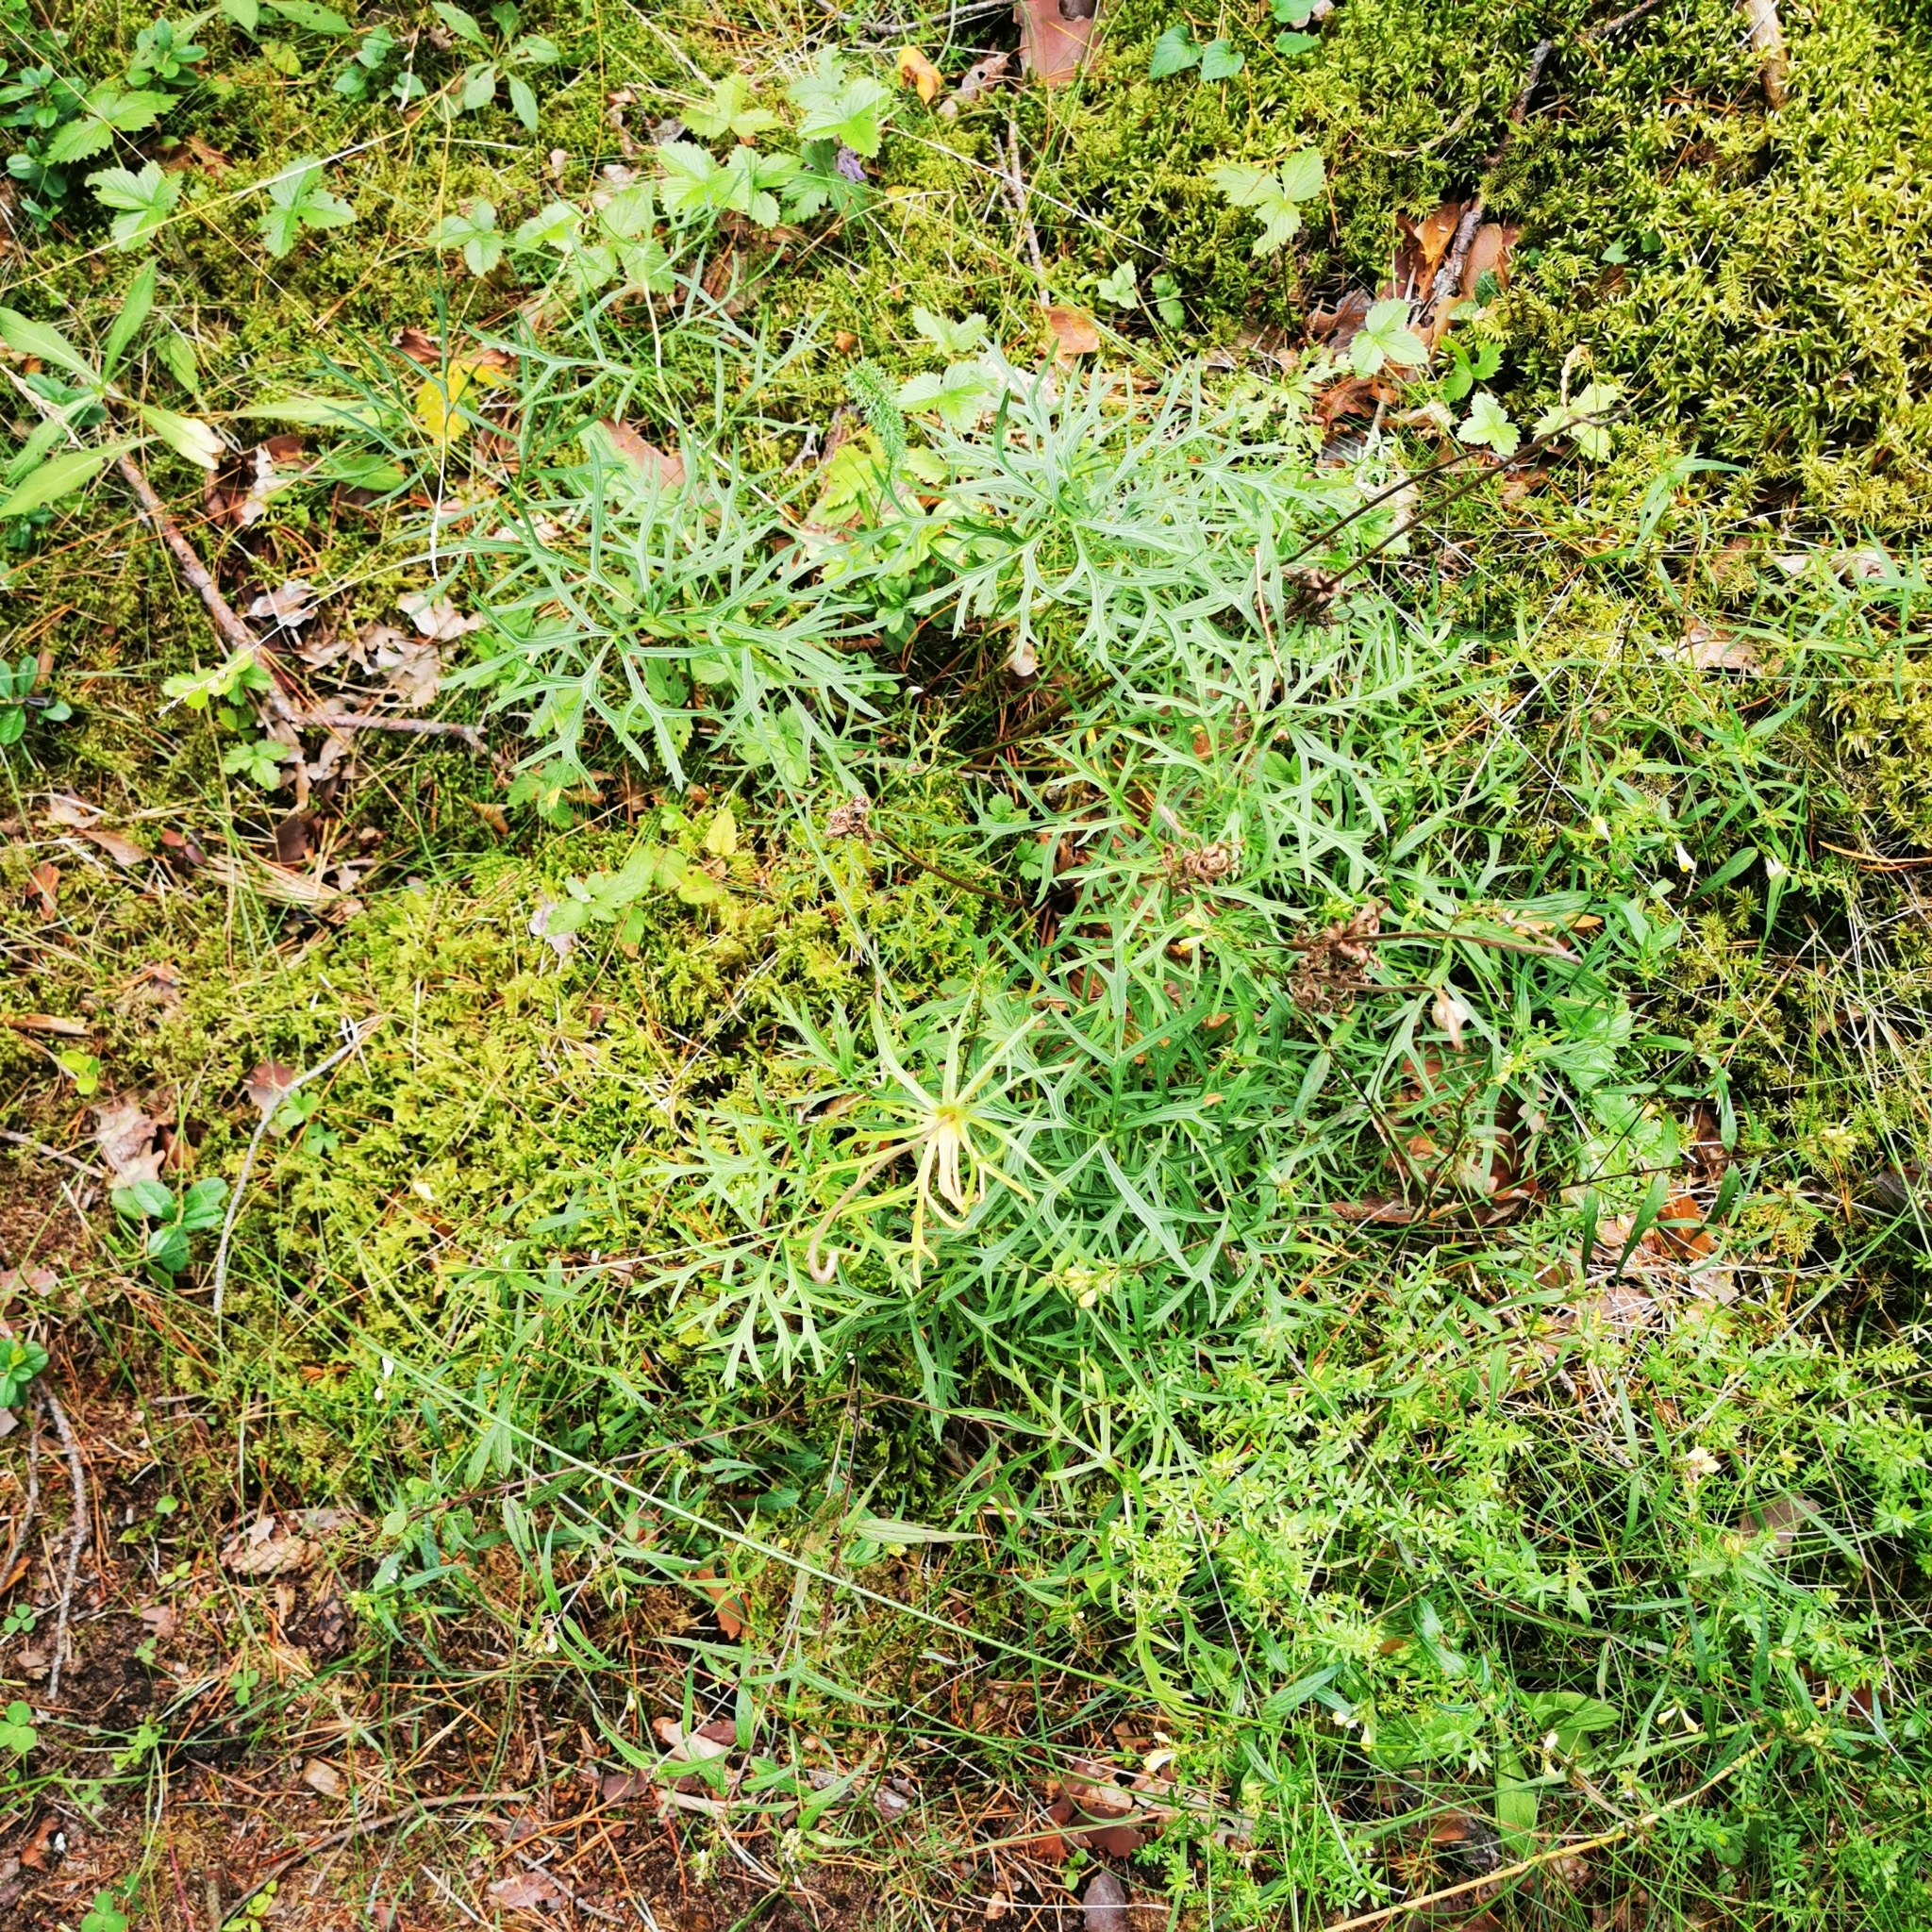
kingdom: Plantae
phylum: Tracheophyta
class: Magnoliopsida
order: Ranunculales
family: Ranunculaceae
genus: Pulsatilla
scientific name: Pulsatilla pratensis
